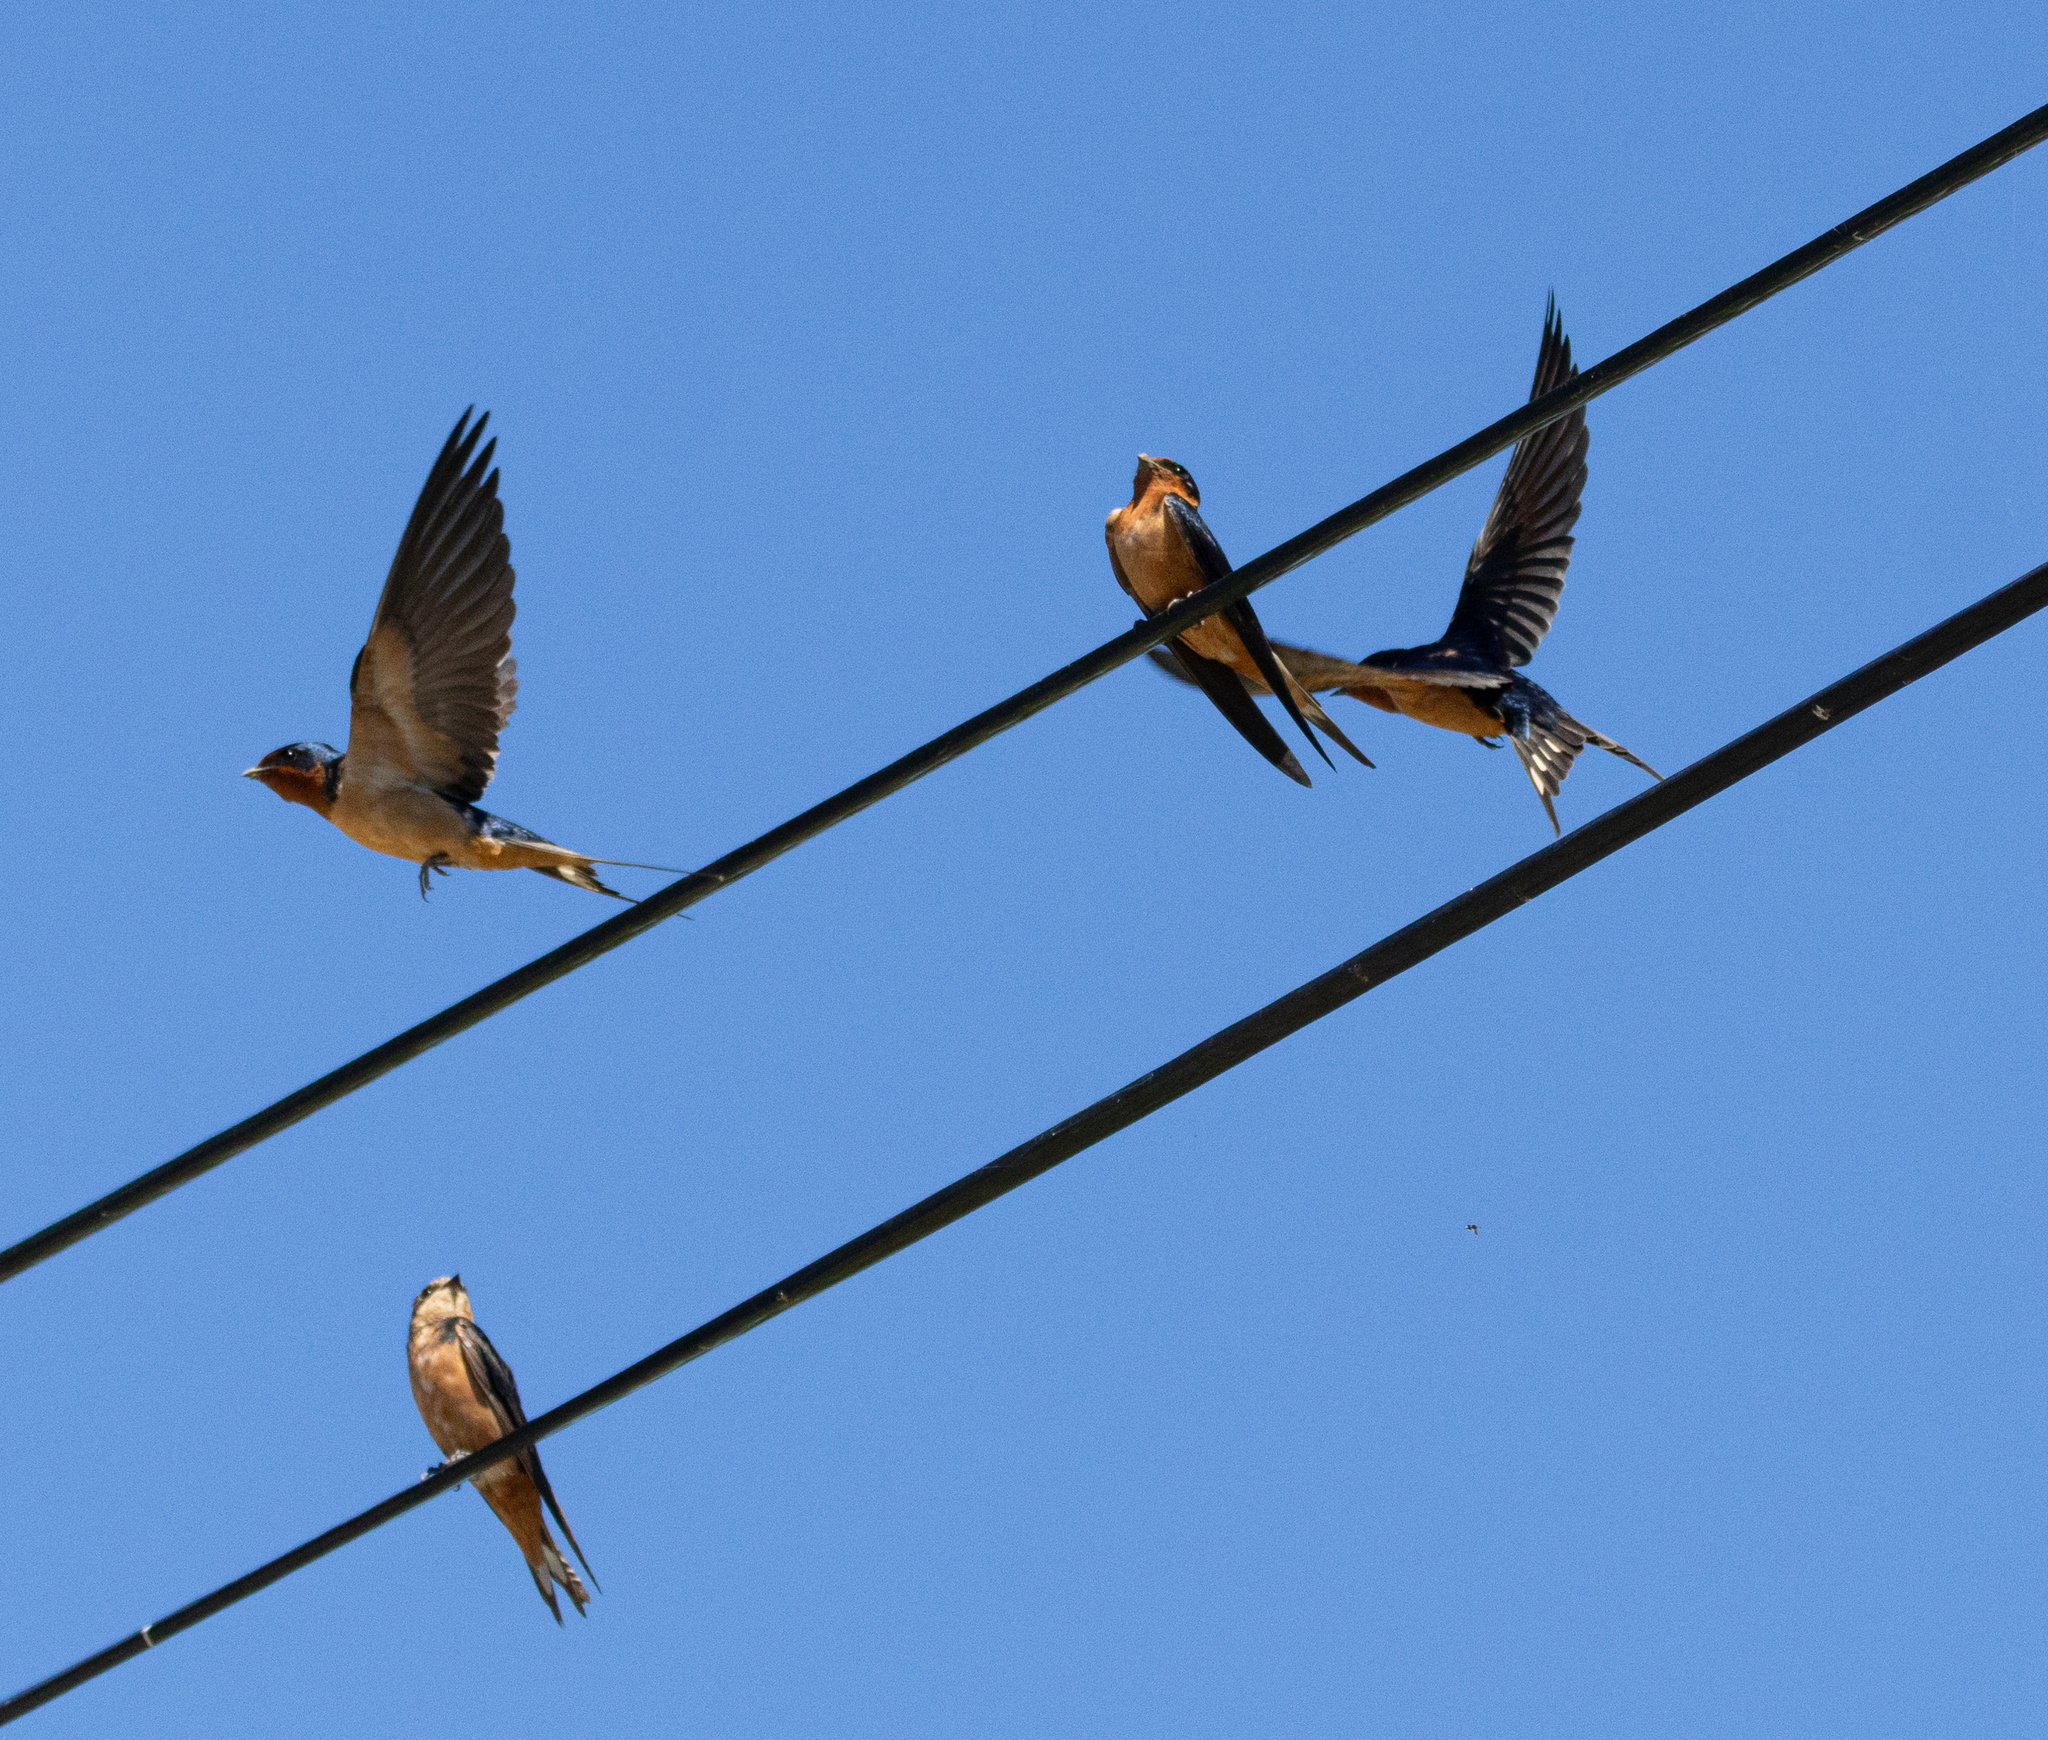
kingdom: Animalia
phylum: Chordata
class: Aves
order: Passeriformes
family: Hirundinidae
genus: Hirundo
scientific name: Hirundo rustica
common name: Barn swallow
